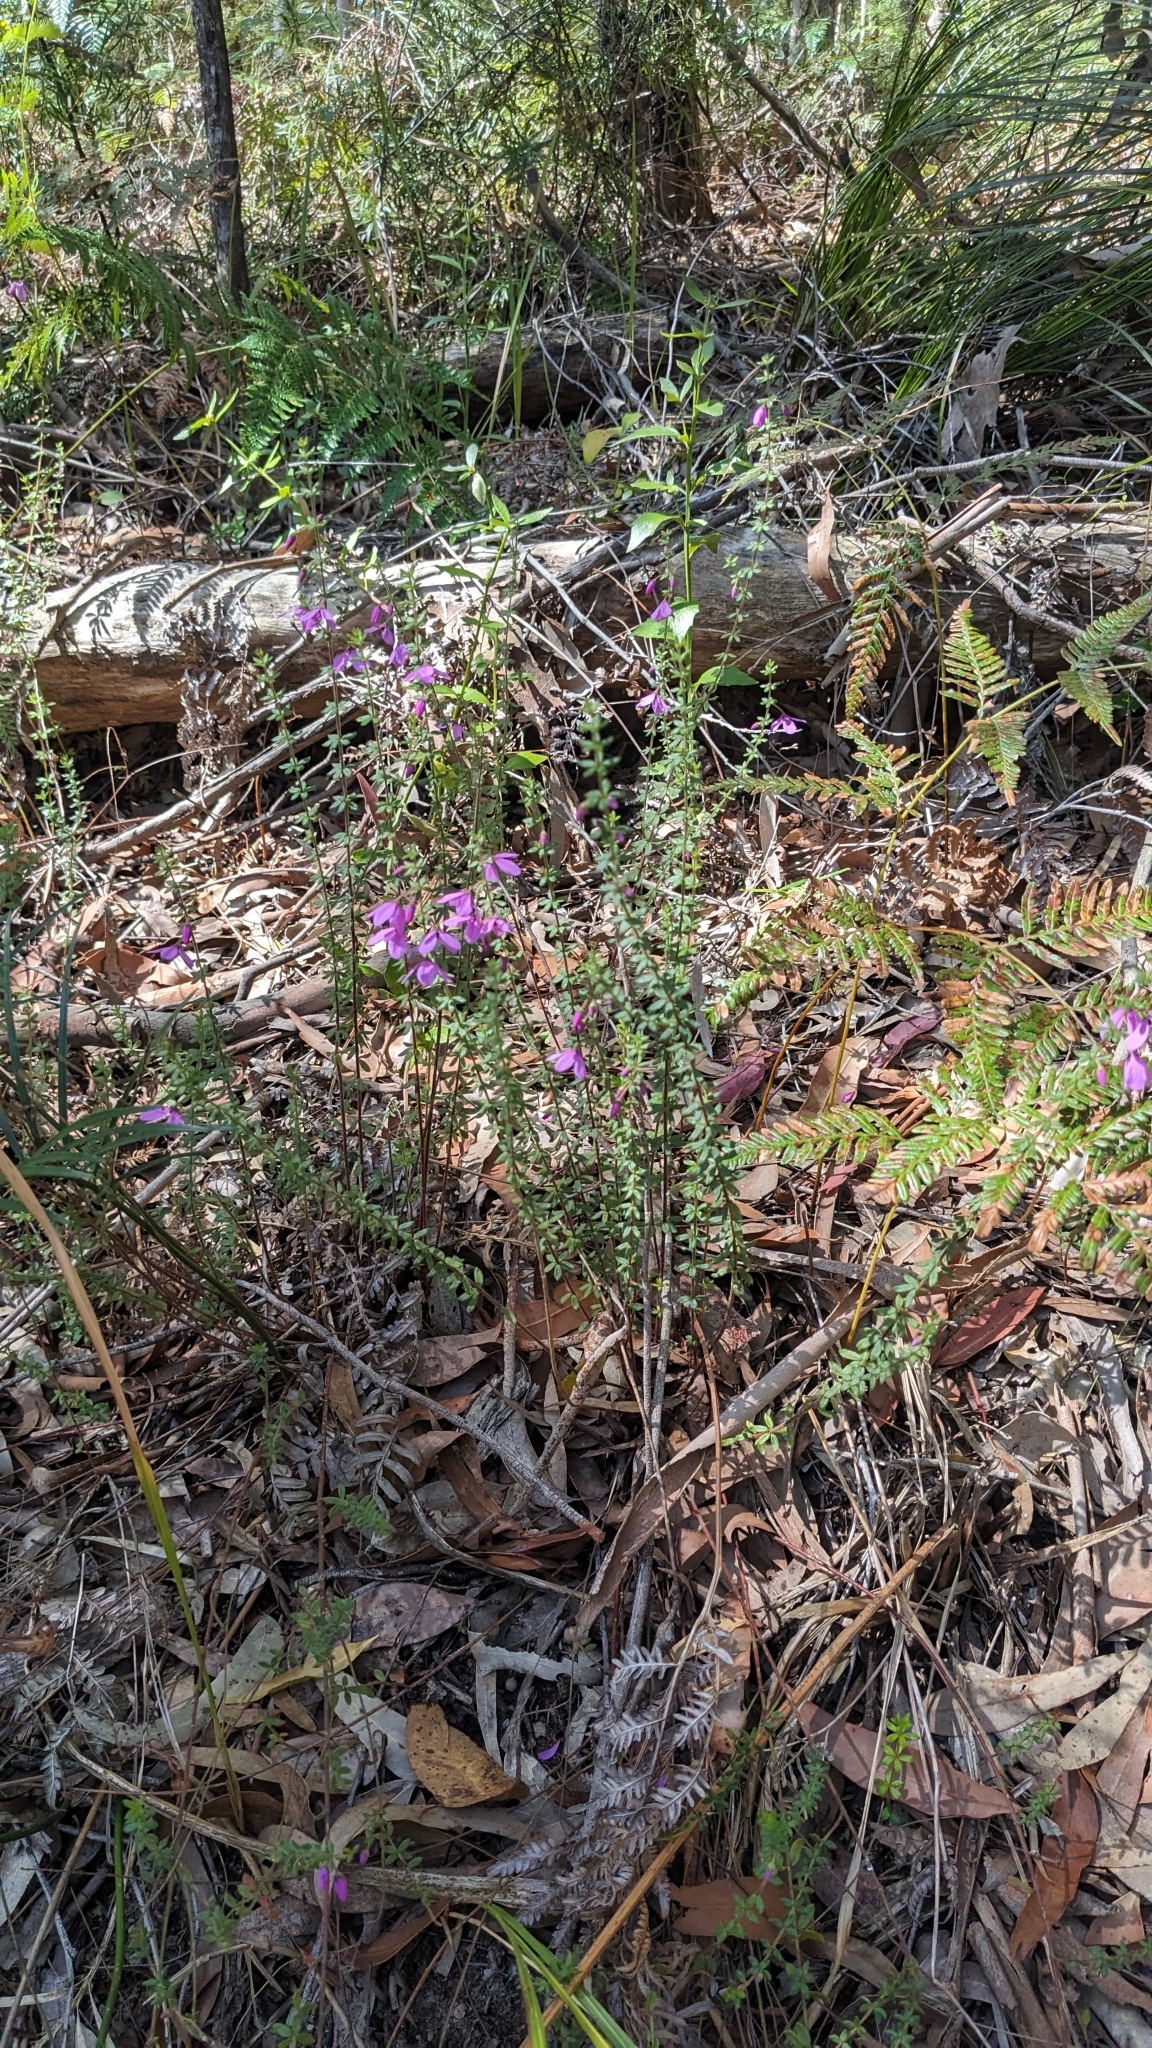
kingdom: Plantae
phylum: Tracheophyta
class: Magnoliopsida
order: Oxalidales
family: Elaeocarpaceae
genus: Tetratheca
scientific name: Tetratheca thymifolia
